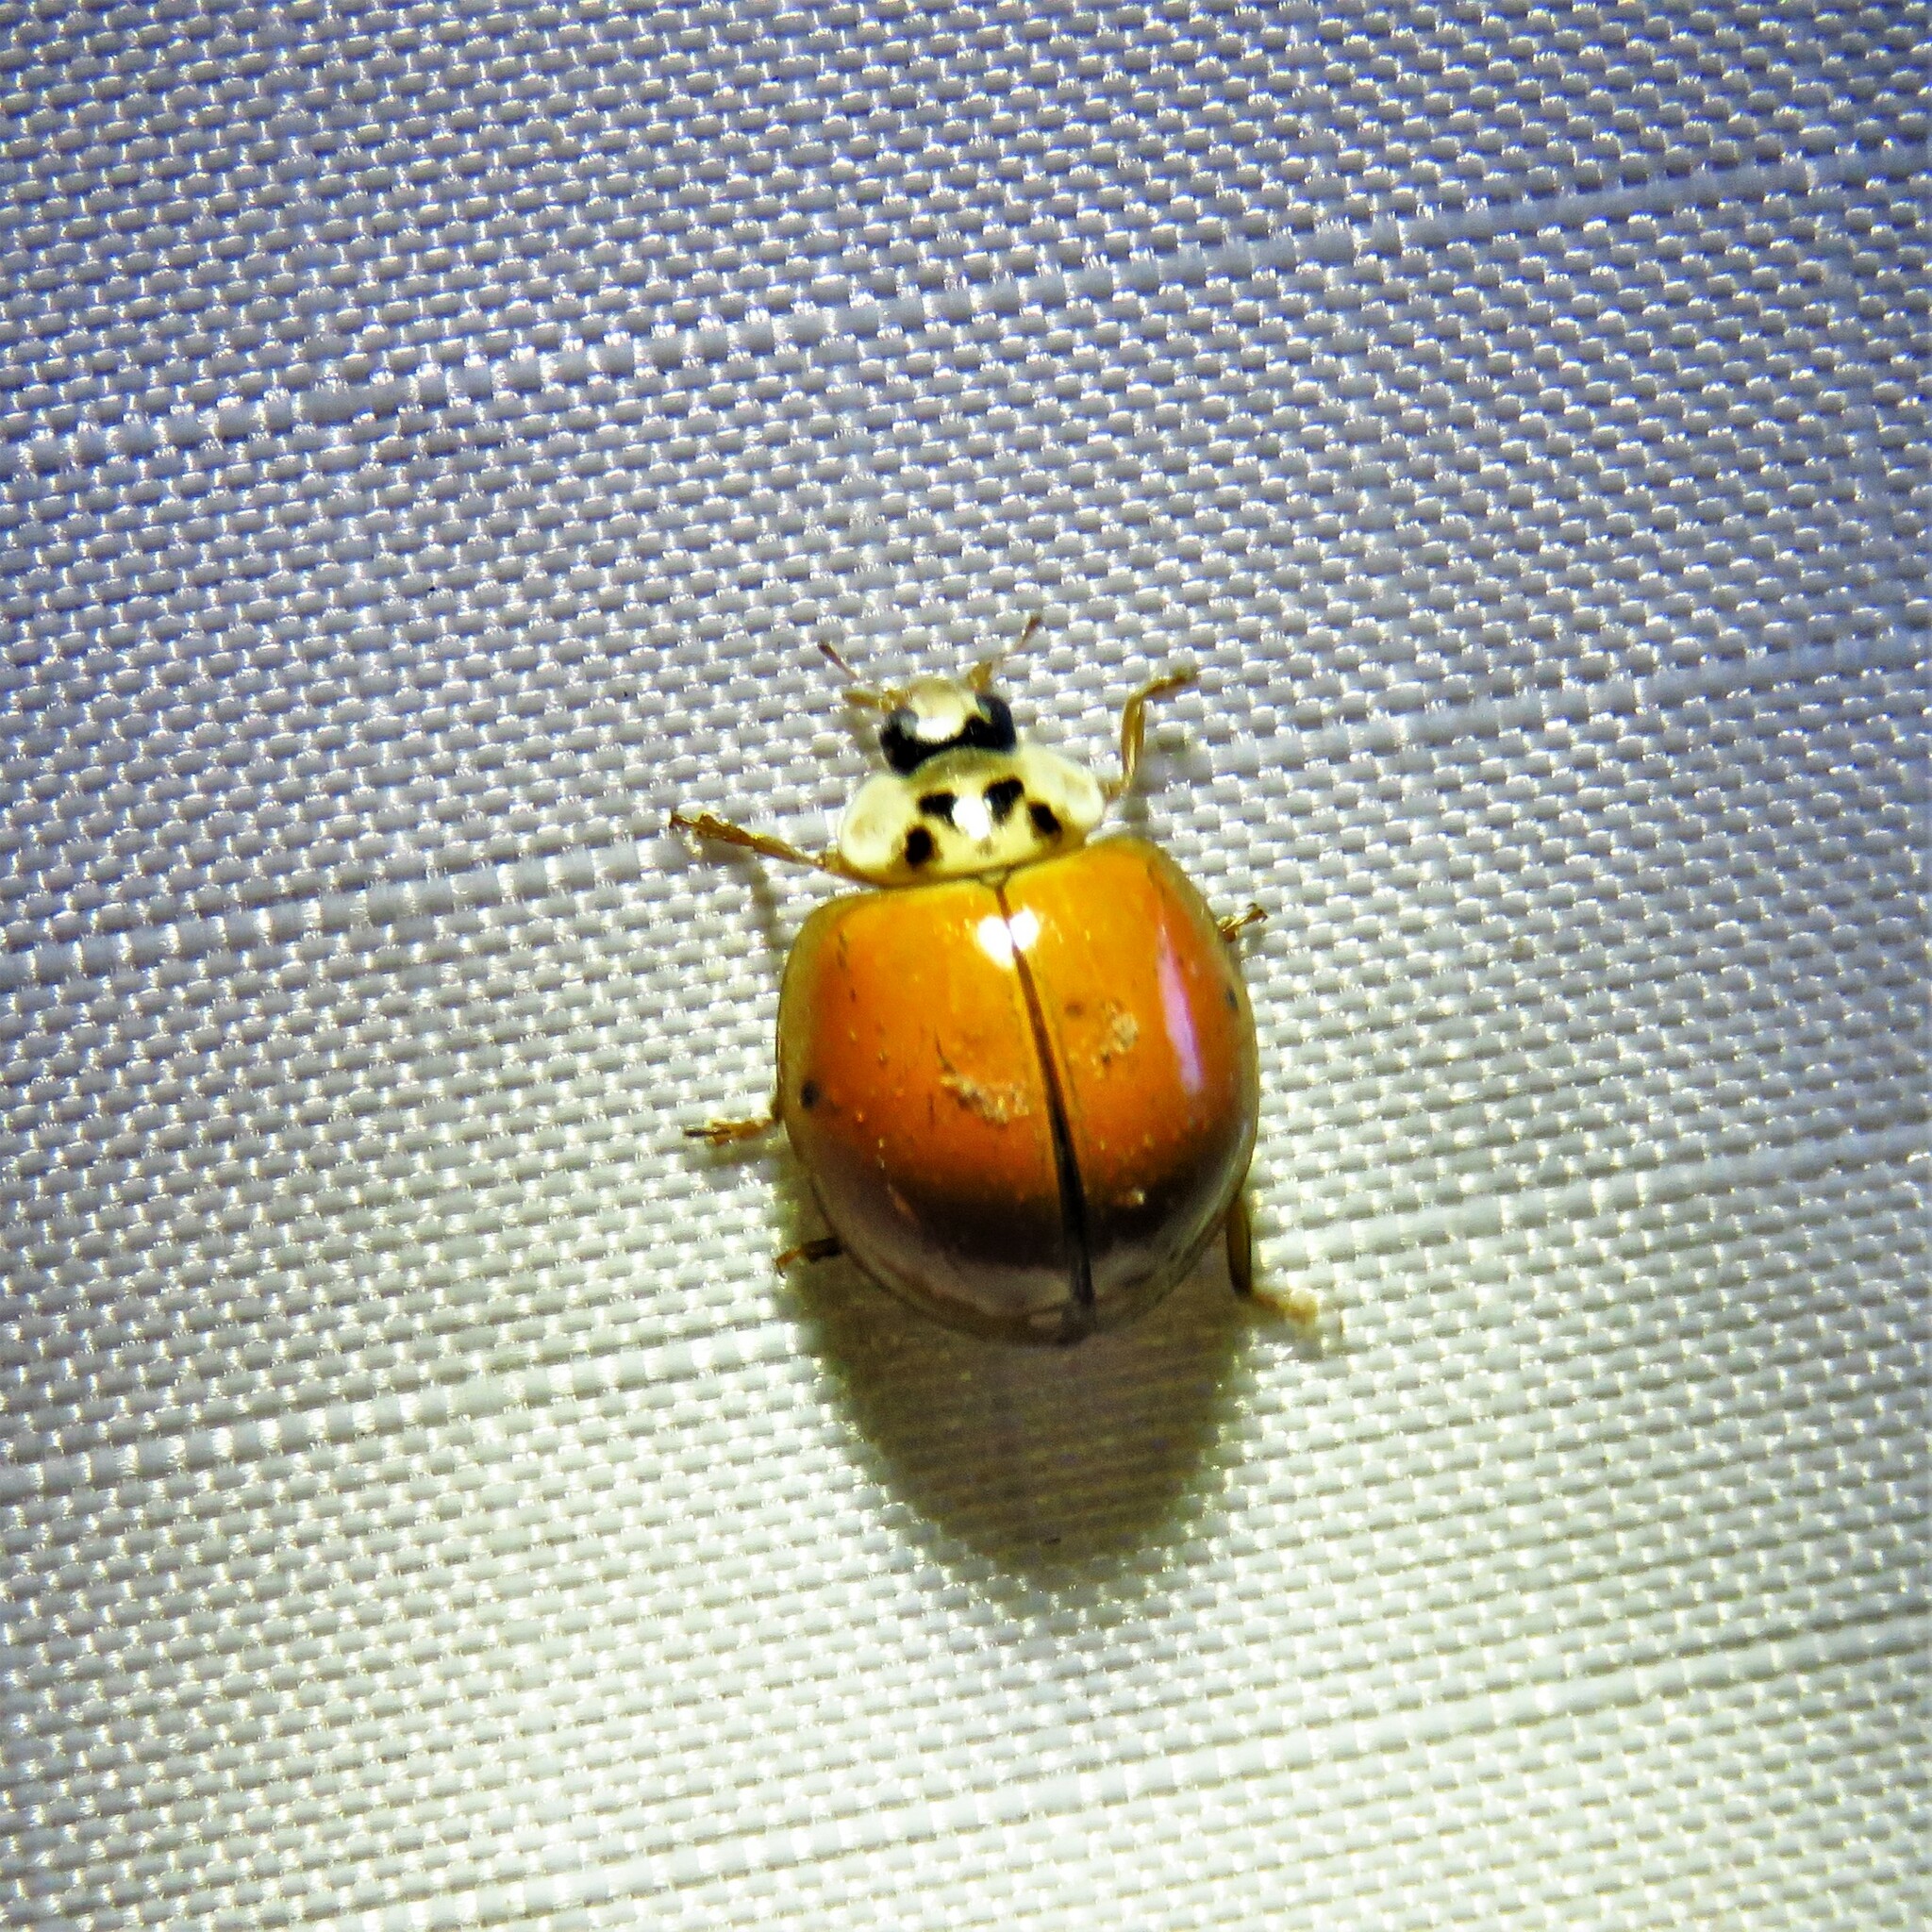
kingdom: Animalia
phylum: Arthropoda
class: Insecta
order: Coleoptera
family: Coccinellidae
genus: Harmonia
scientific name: Harmonia axyridis
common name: Harlequin ladybird
